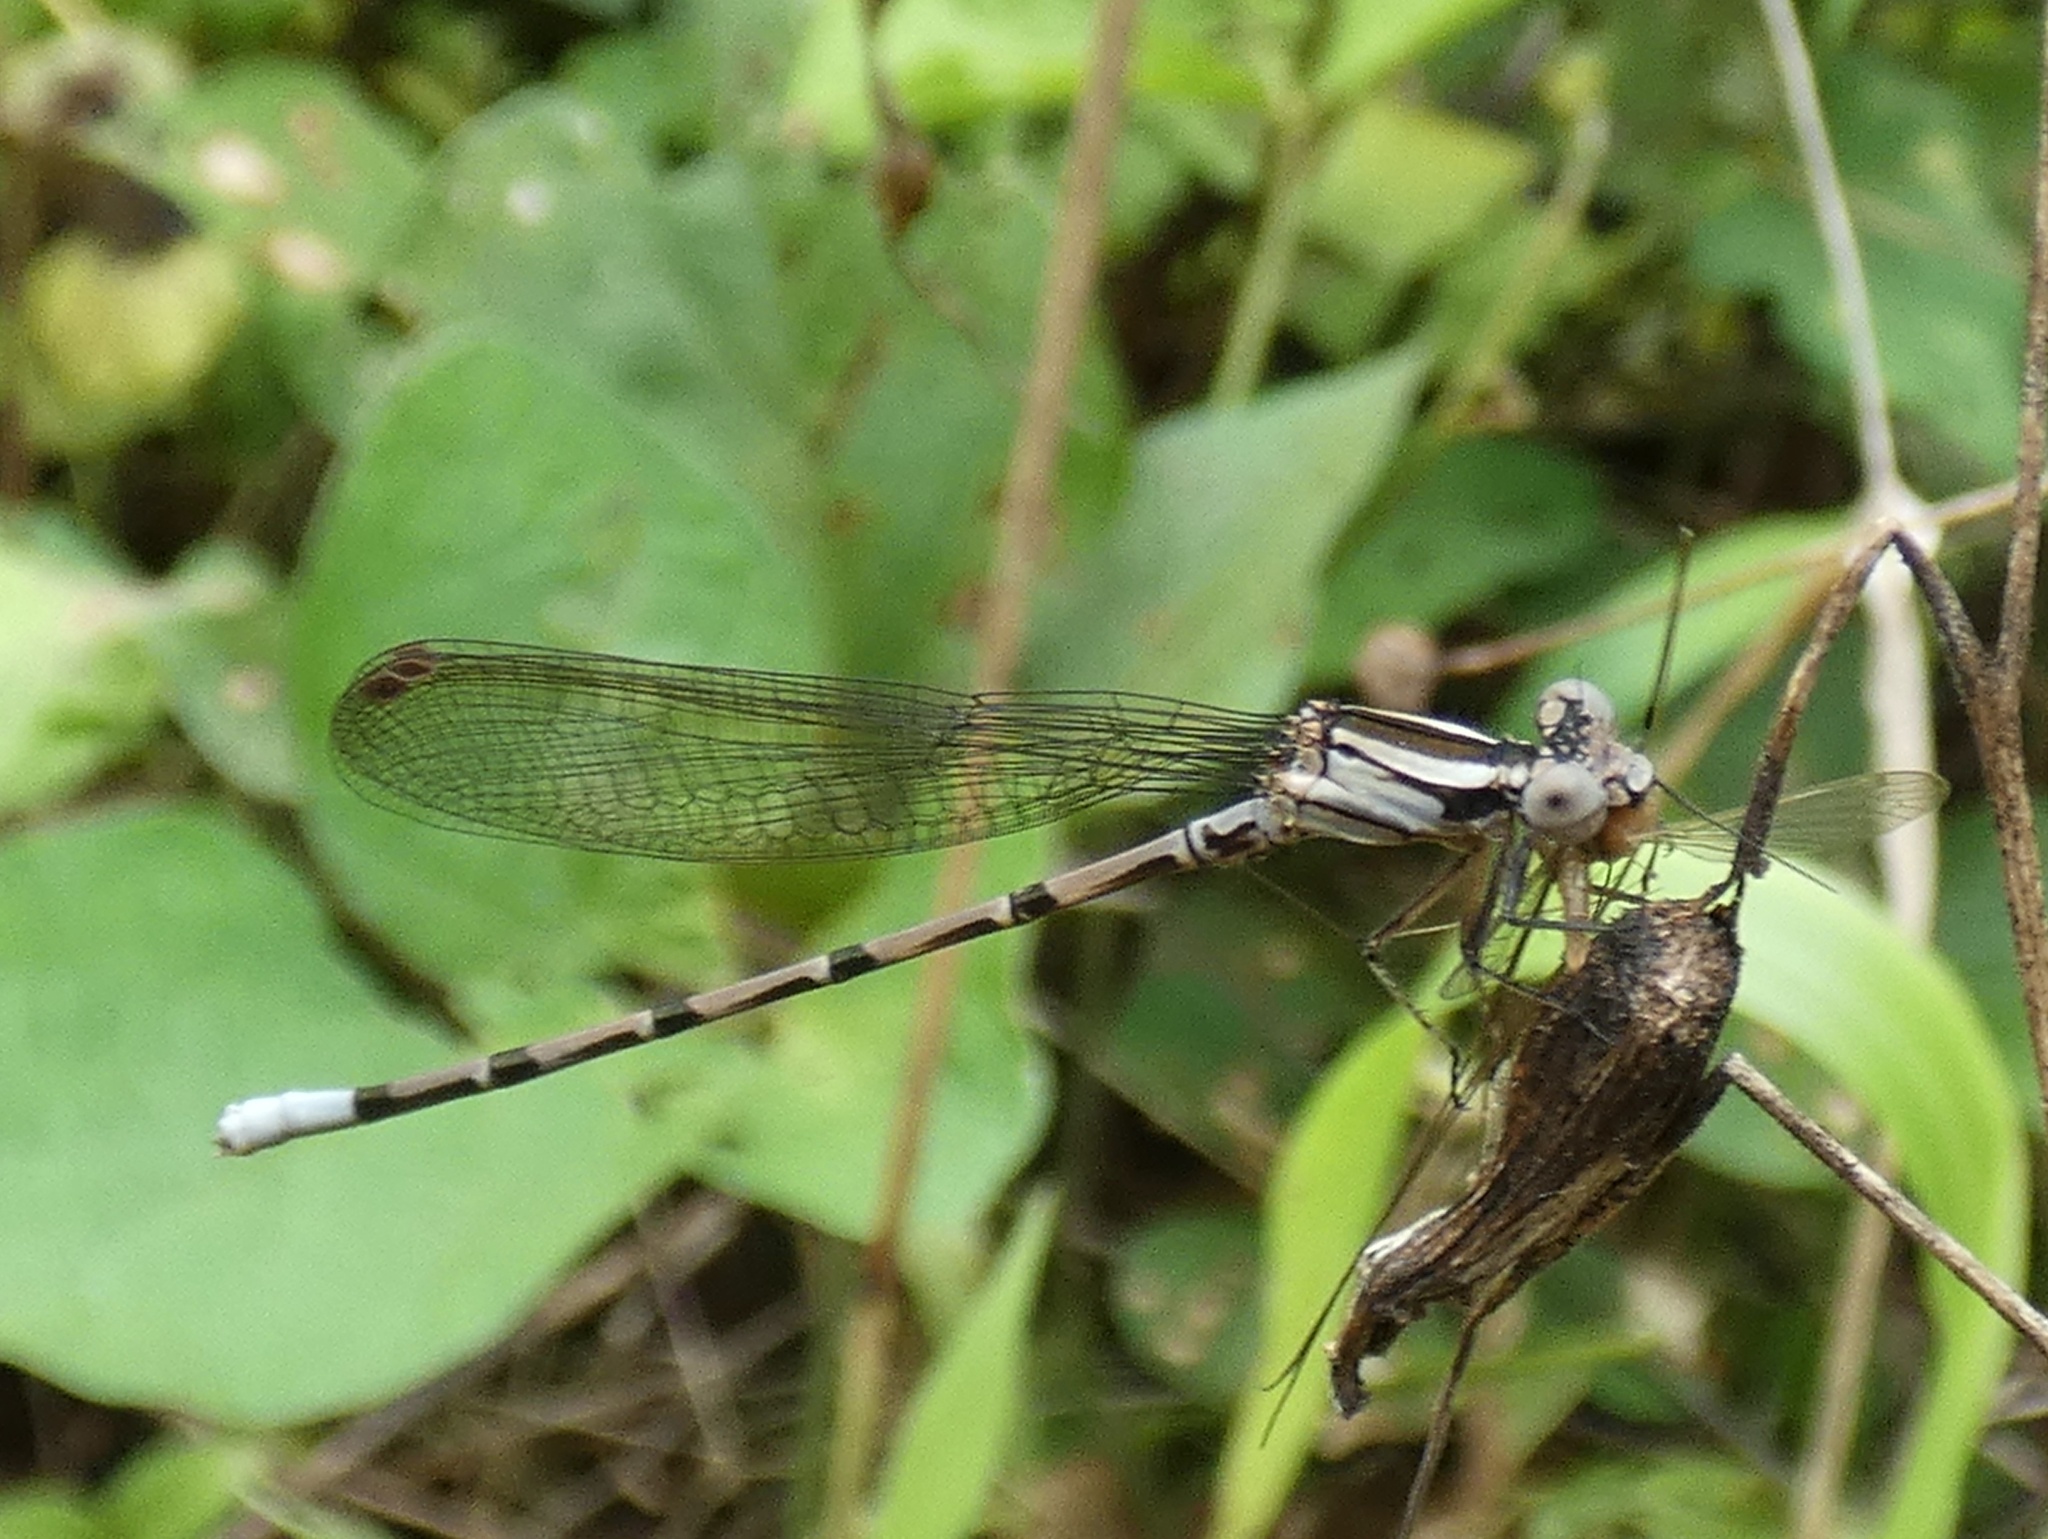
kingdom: Animalia
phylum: Arthropoda
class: Insecta
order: Odonata
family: Coenagrionidae
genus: Argia
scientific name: Argia elongata
